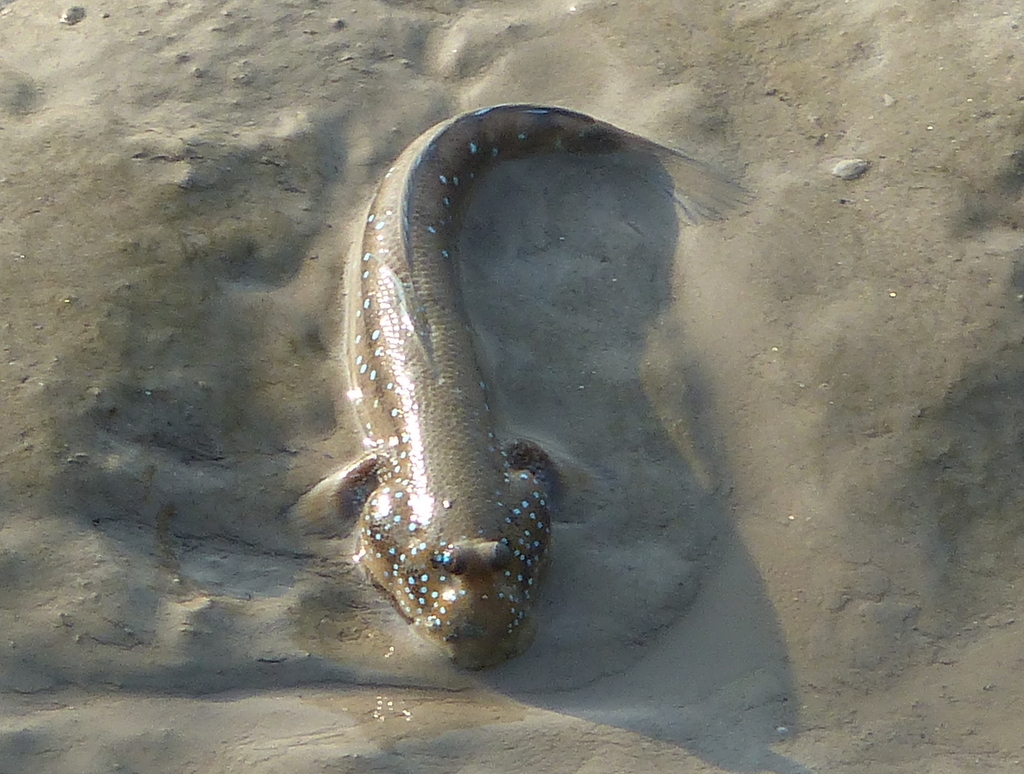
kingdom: Animalia
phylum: Chordata
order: Perciformes
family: Gobiidae
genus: Boleophthalmus
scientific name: Boleophthalmus pectinirostris
